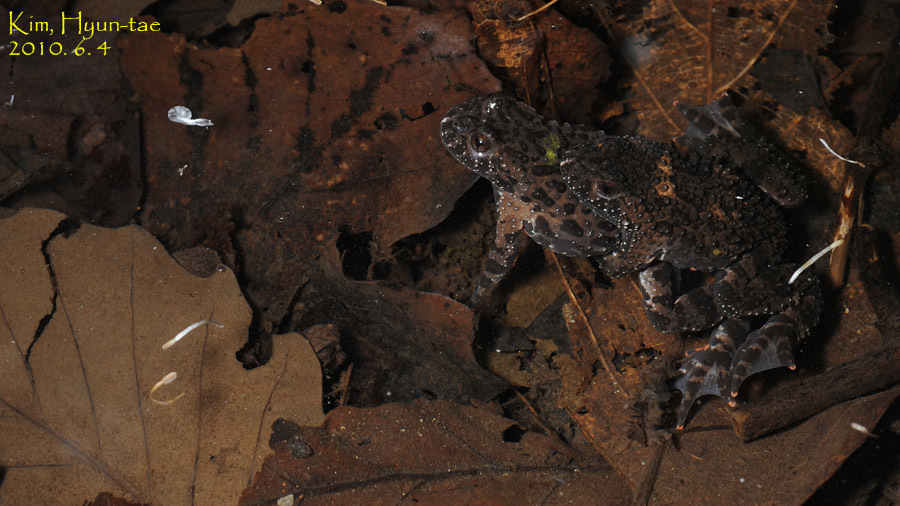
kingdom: Animalia
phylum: Chordata
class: Amphibia
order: Anura
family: Bombinatoridae
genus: Bombina
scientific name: Bombina orientalis
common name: Oriental firebelly toad
